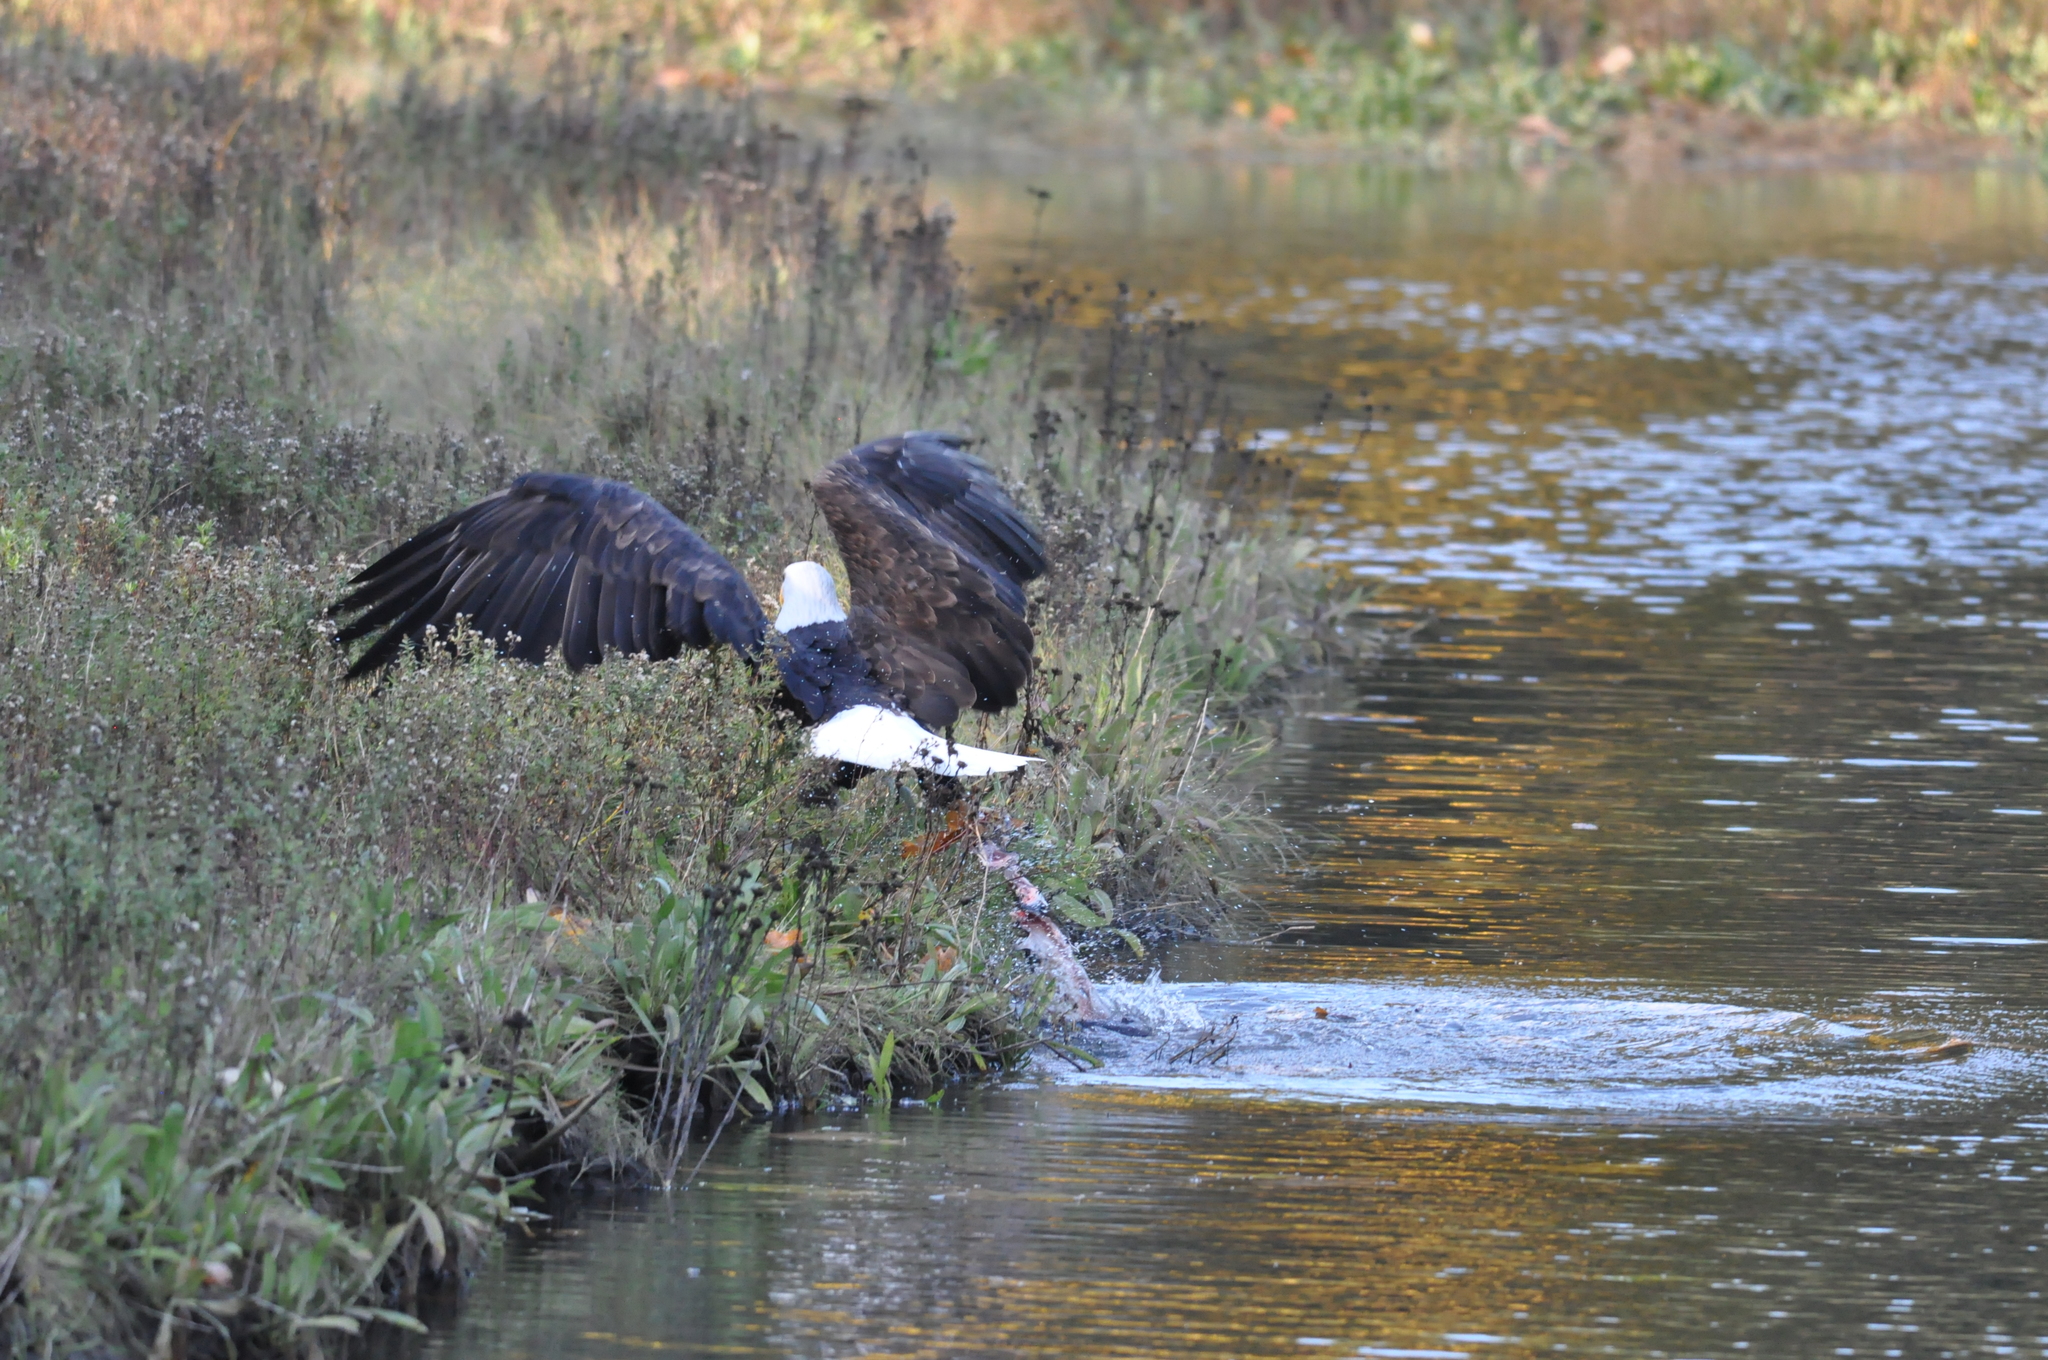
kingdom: Animalia
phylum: Chordata
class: Aves
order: Accipitriformes
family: Accipitridae
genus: Haliaeetus
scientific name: Haliaeetus leucocephalus
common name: Bald eagle
